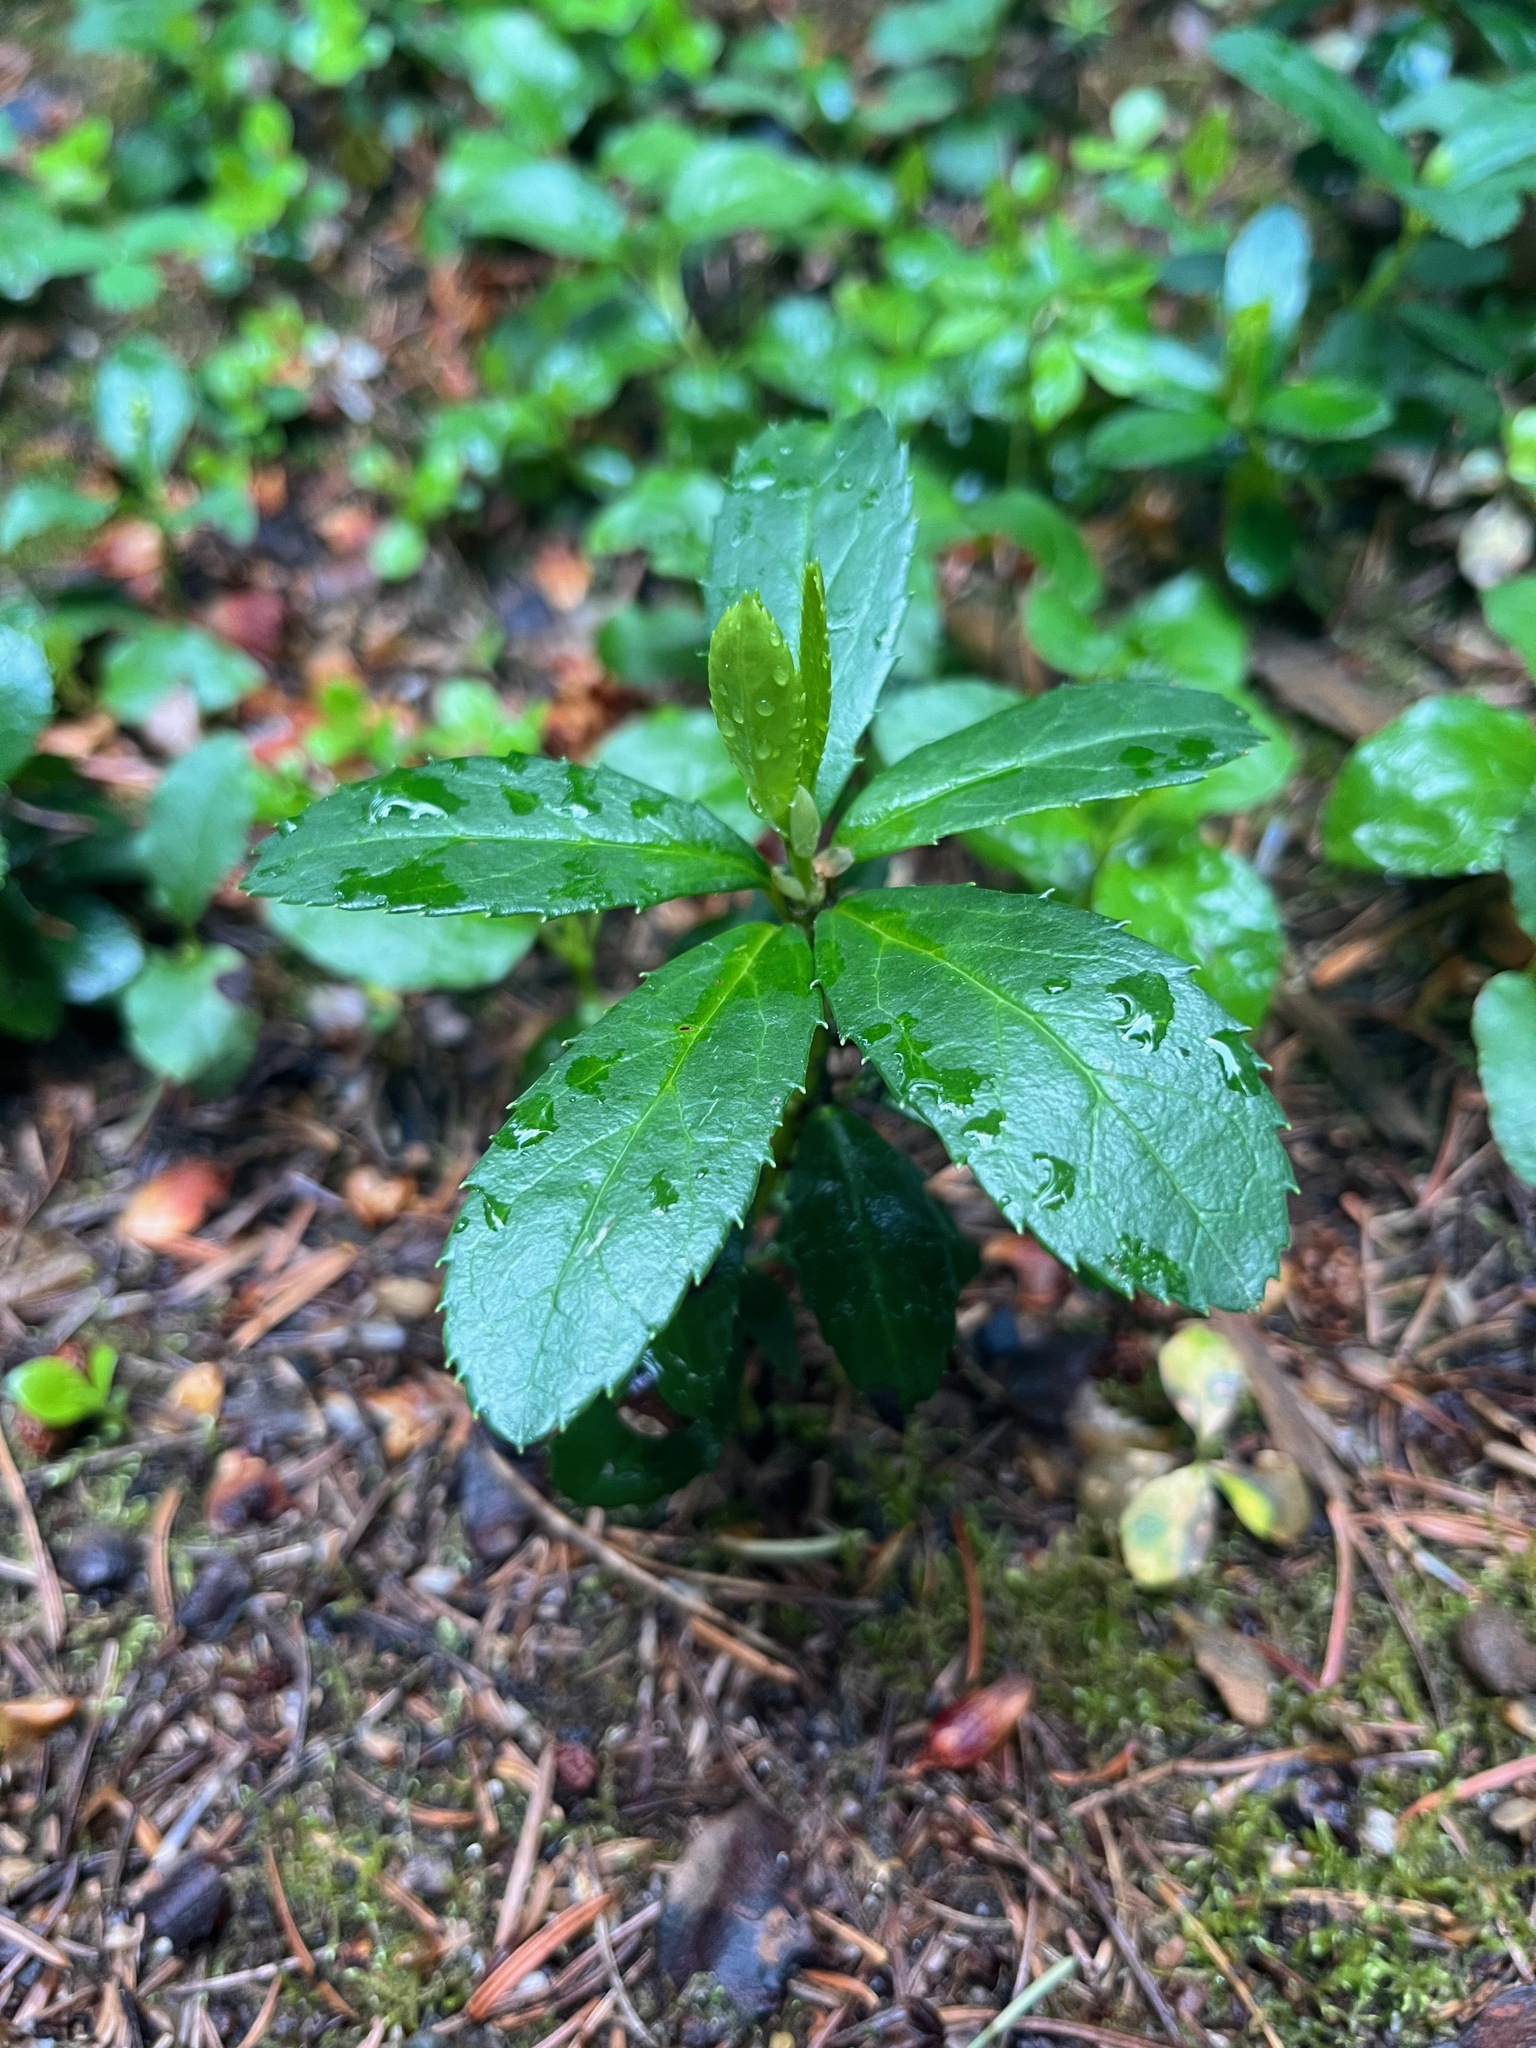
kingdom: Plantae
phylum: Tracheophyta
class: Magnoliopsida
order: Ericales
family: Ericaceae
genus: Chimaphila
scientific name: Chimaphila umbellata
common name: Pipsissewa
